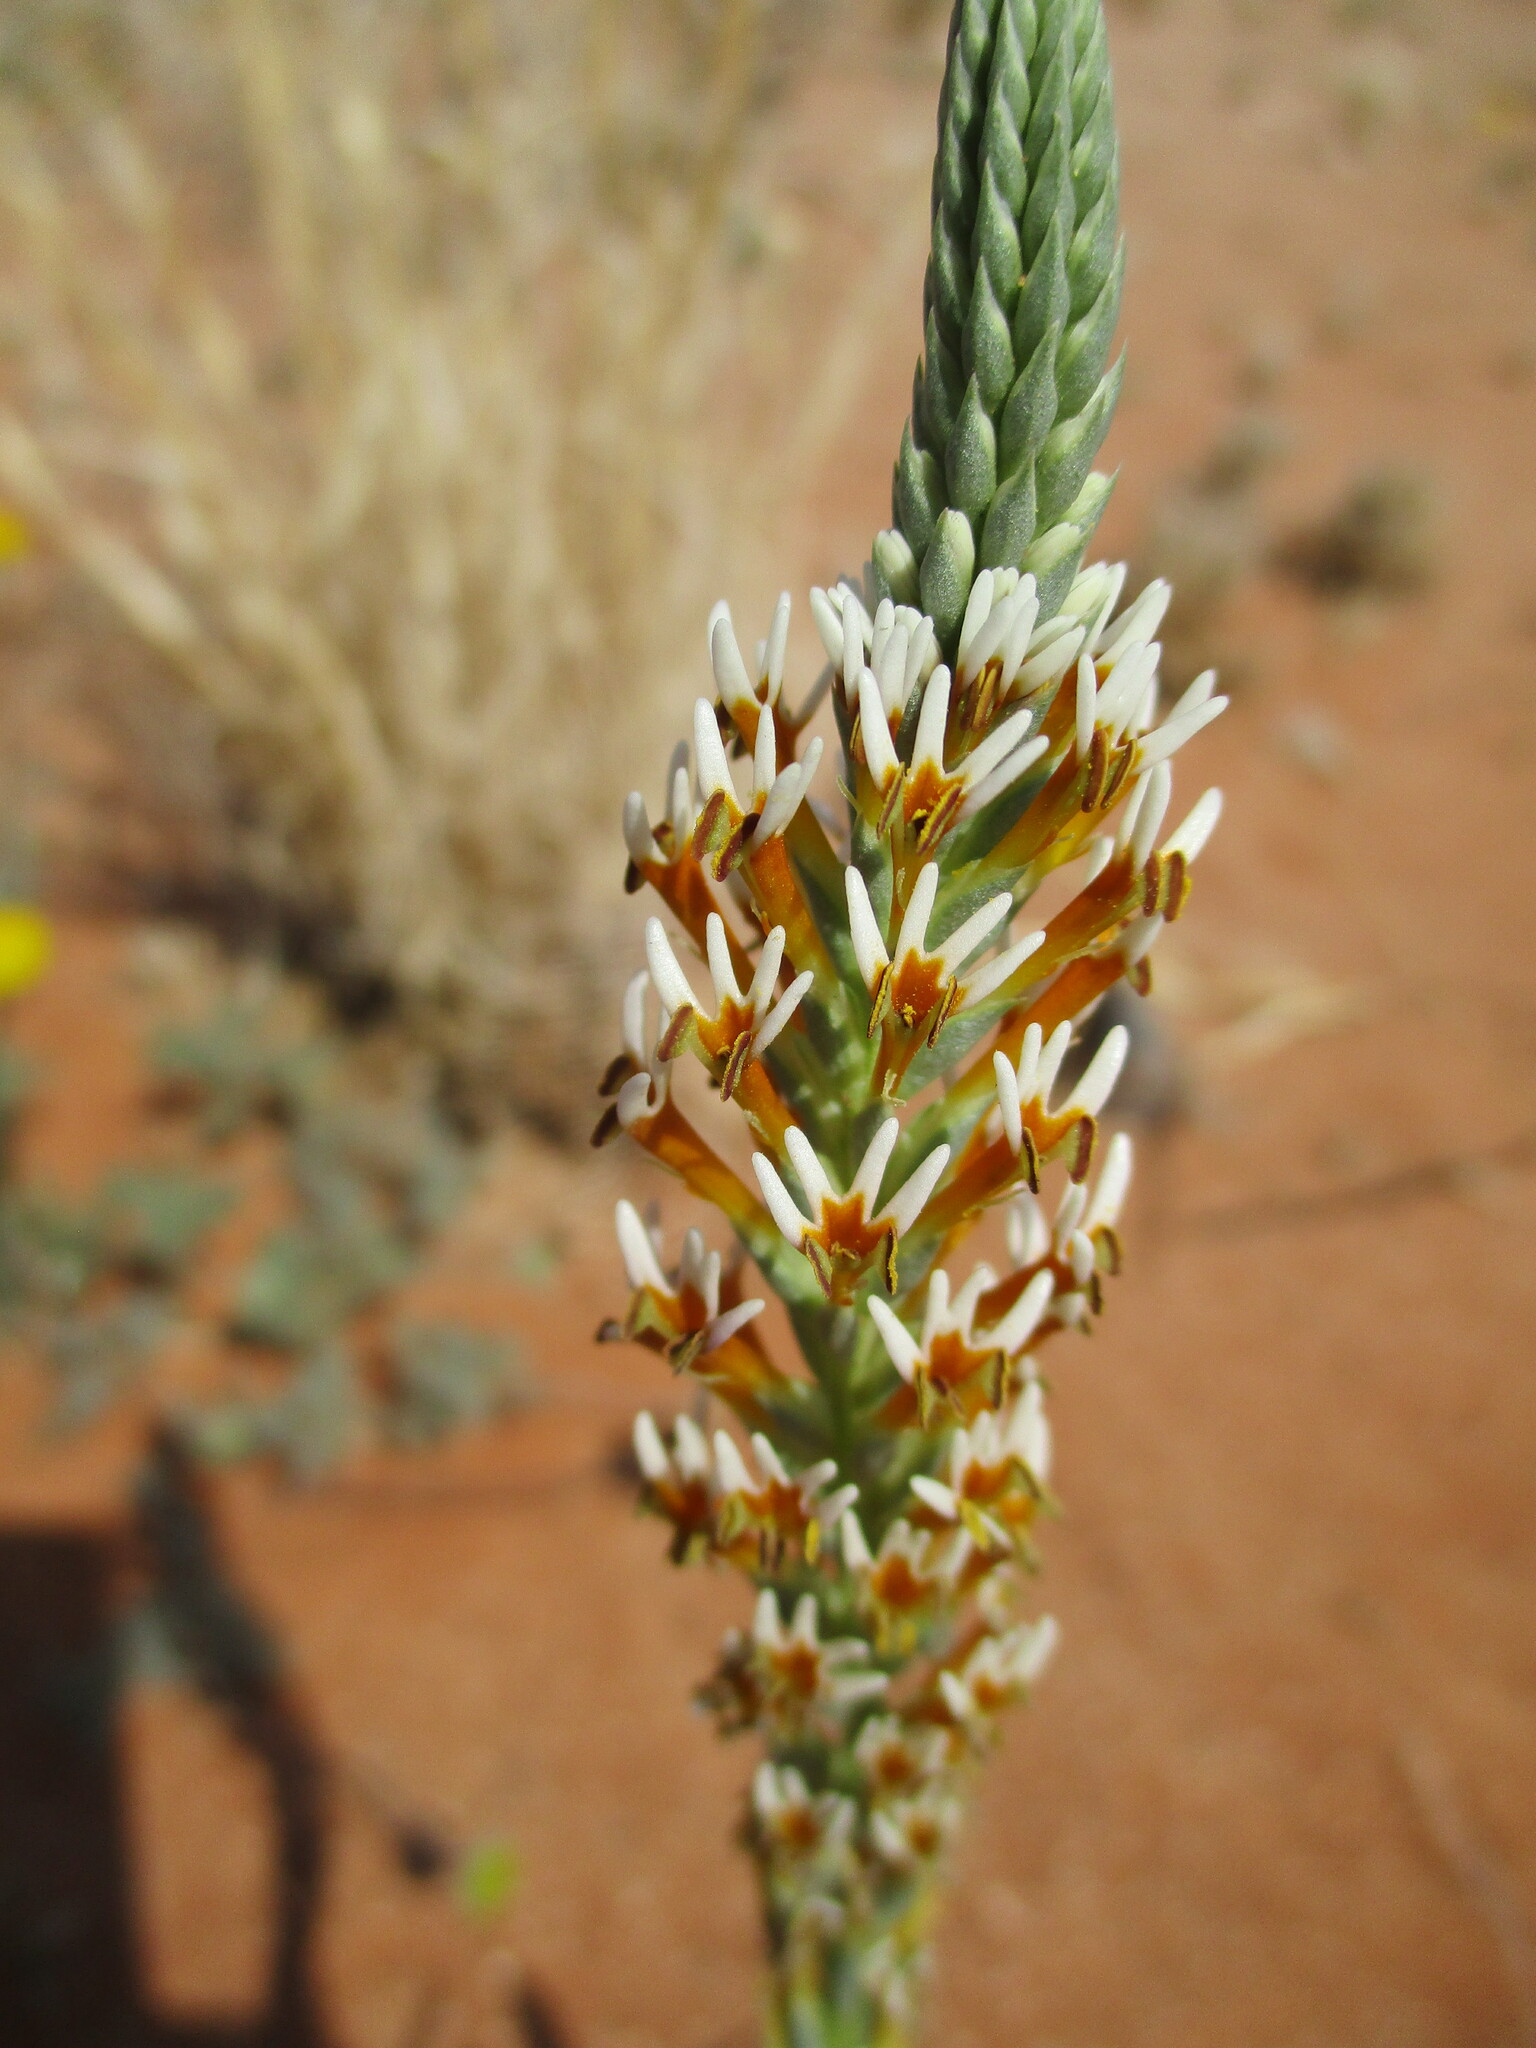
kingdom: Plantae
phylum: Tracheophyta
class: Magnoliopsida
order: Lamiales
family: Scrophulariaceae
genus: Hebenstretia
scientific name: Hebenstretia parviflora
